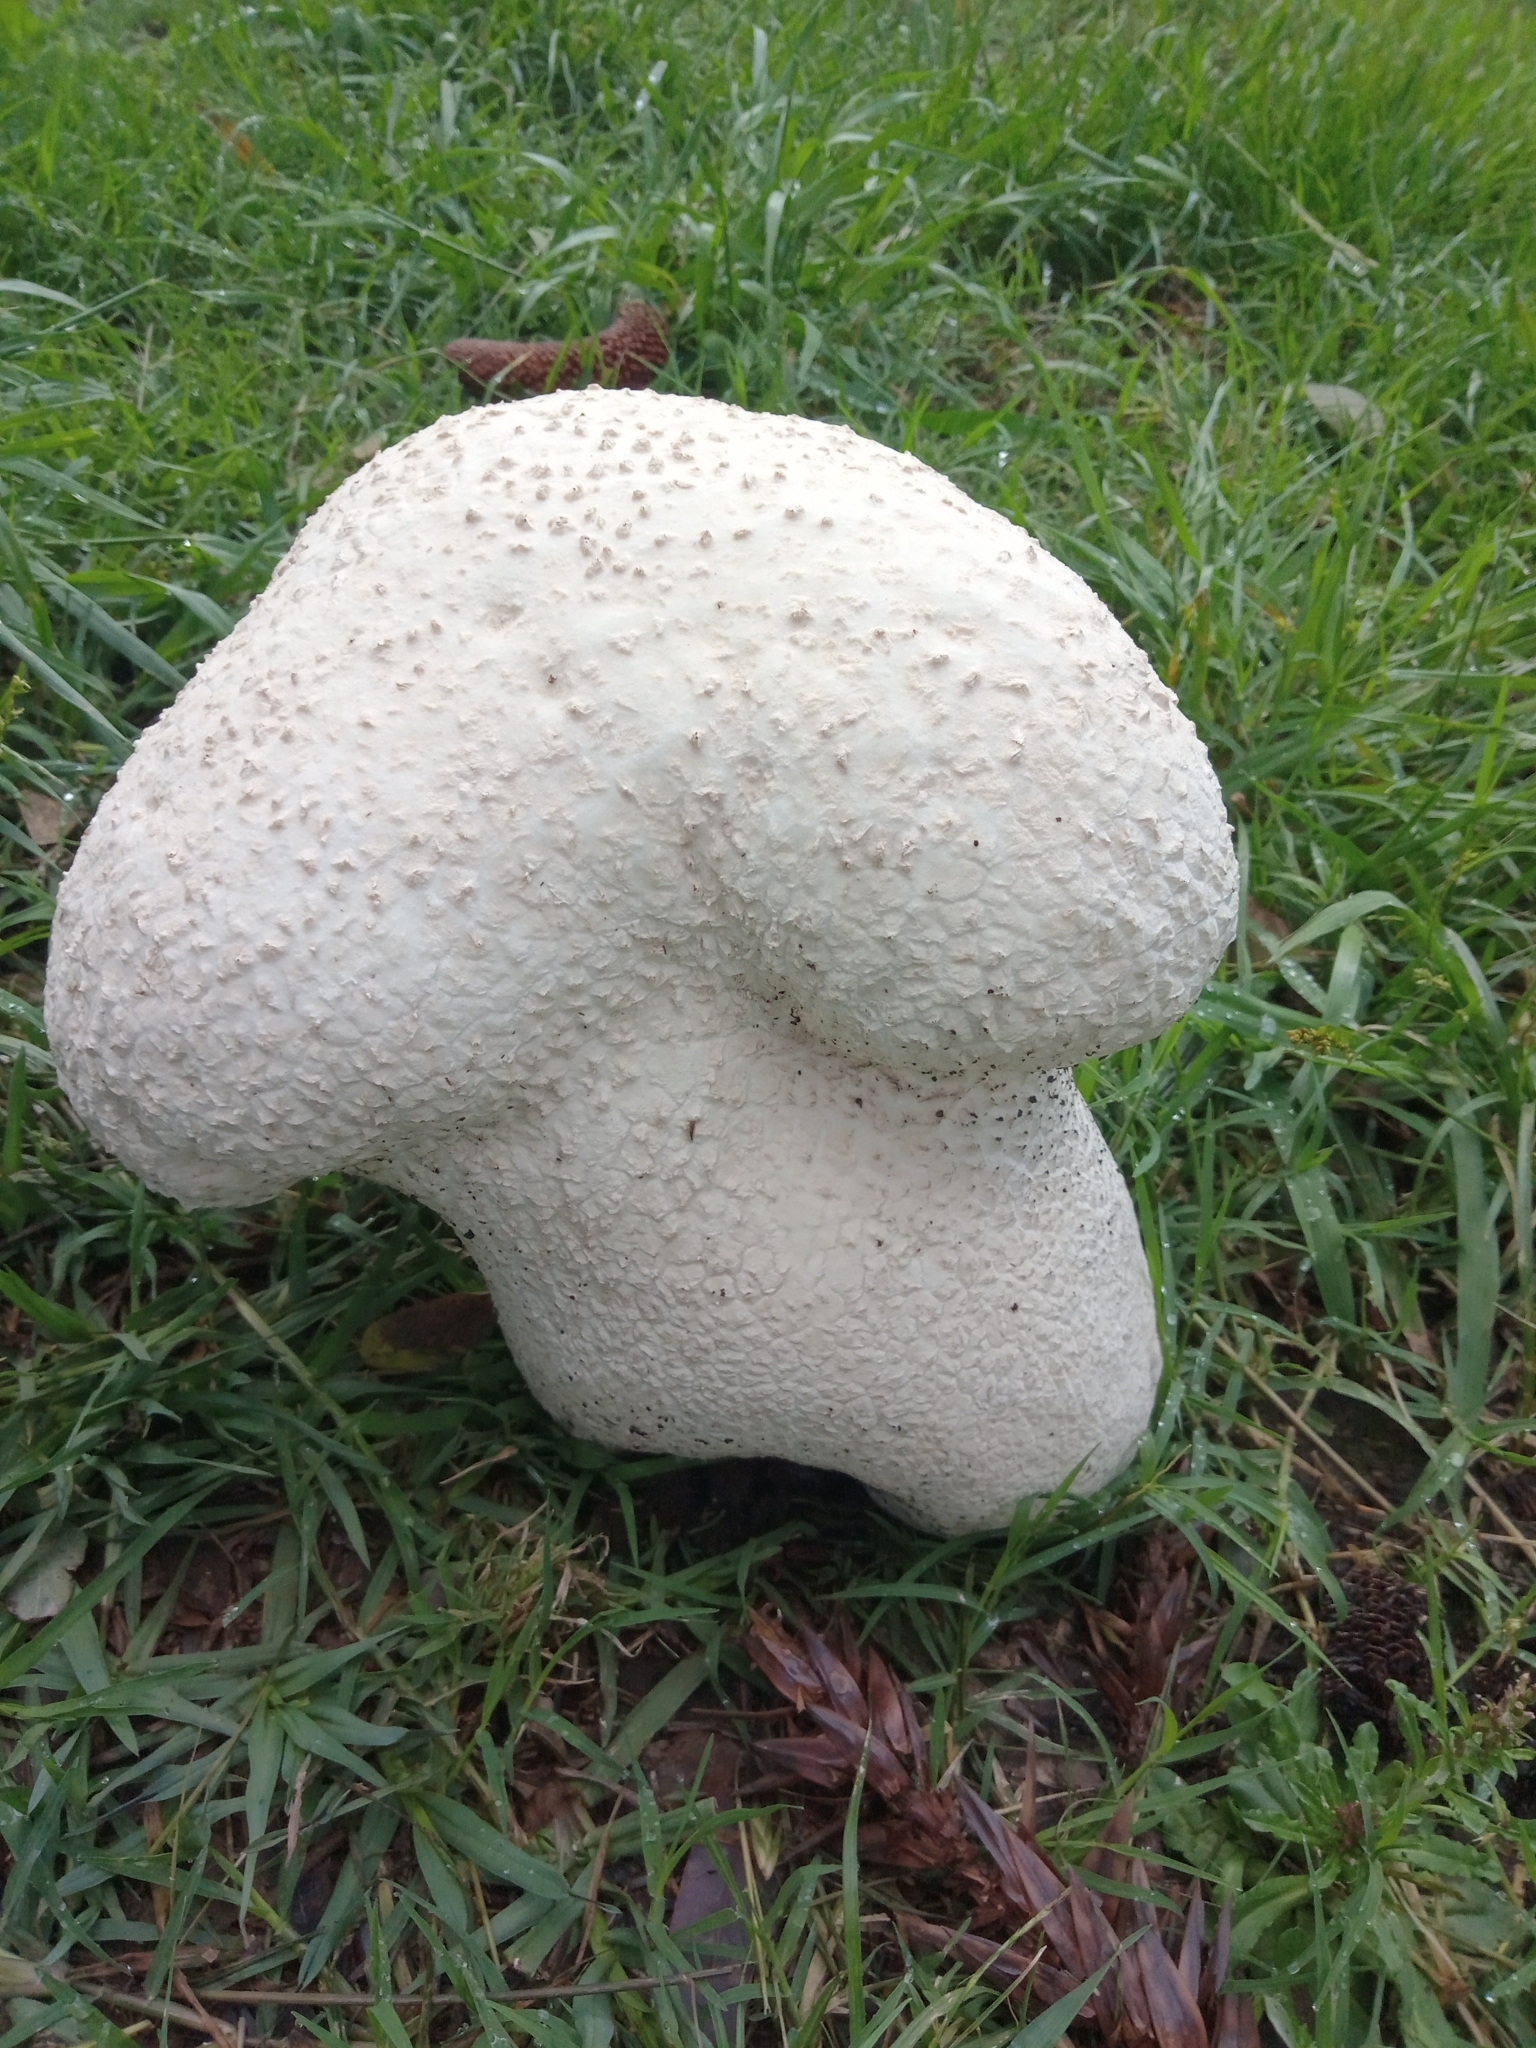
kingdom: Fungi
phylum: Basidiomycota
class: Agaricomycetes
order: Agaricales
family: Lycoperdaceae
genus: Calvatia
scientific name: Calvatia cyathiformis
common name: Purple-spored puffball
